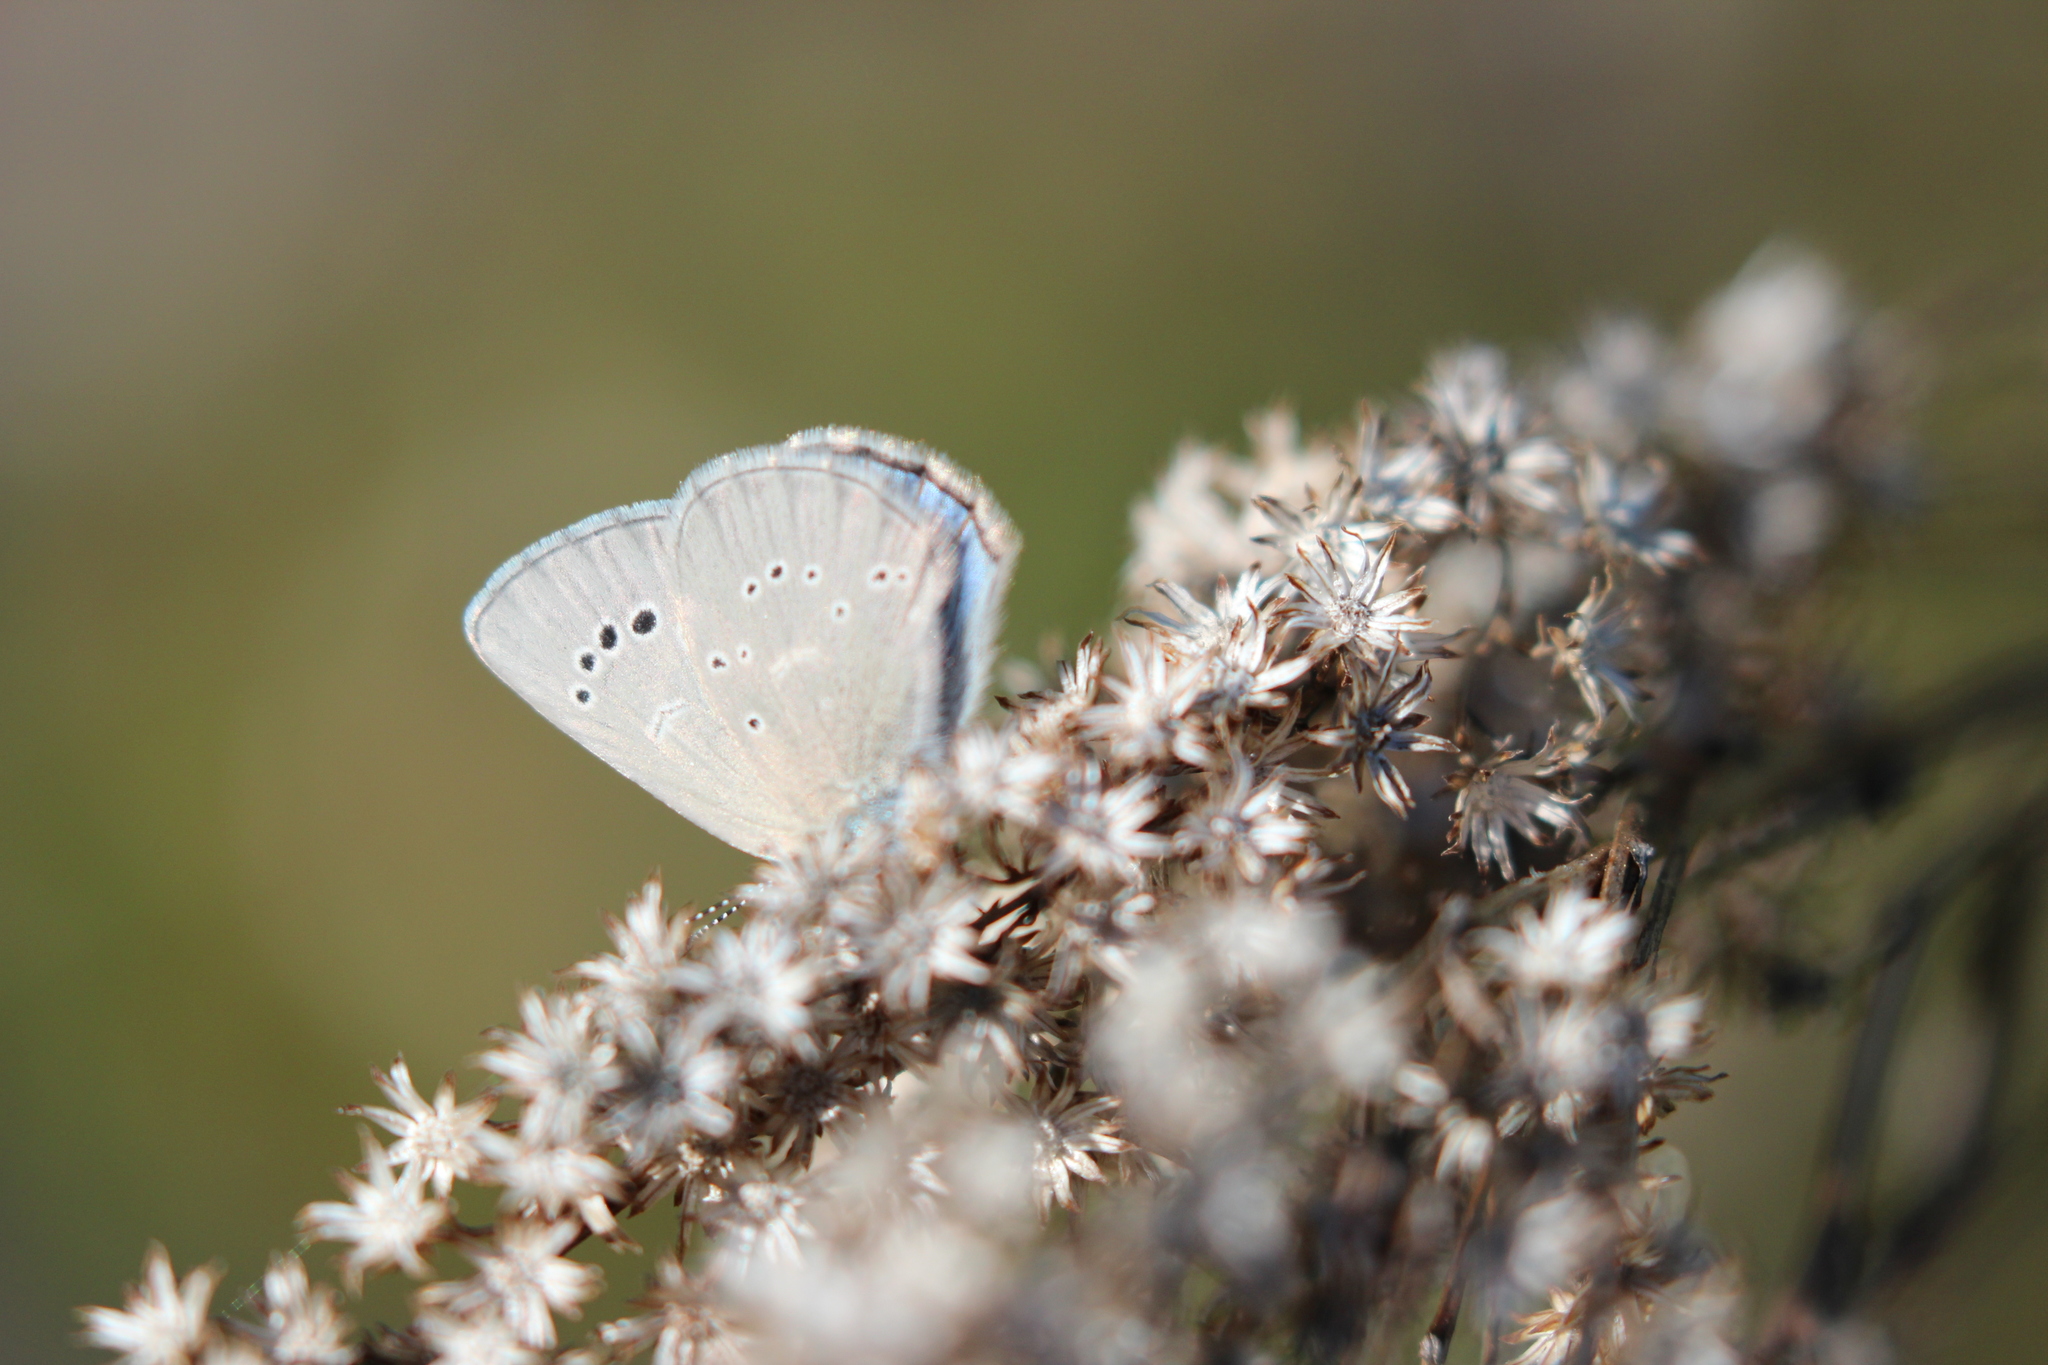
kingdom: Animalia
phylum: Arthropoda
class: Insecta
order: Lepidoptera
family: Lycaenidae
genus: Glaucopsyche
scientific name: Glaucopsyche lygdamus
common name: Silvery blue
